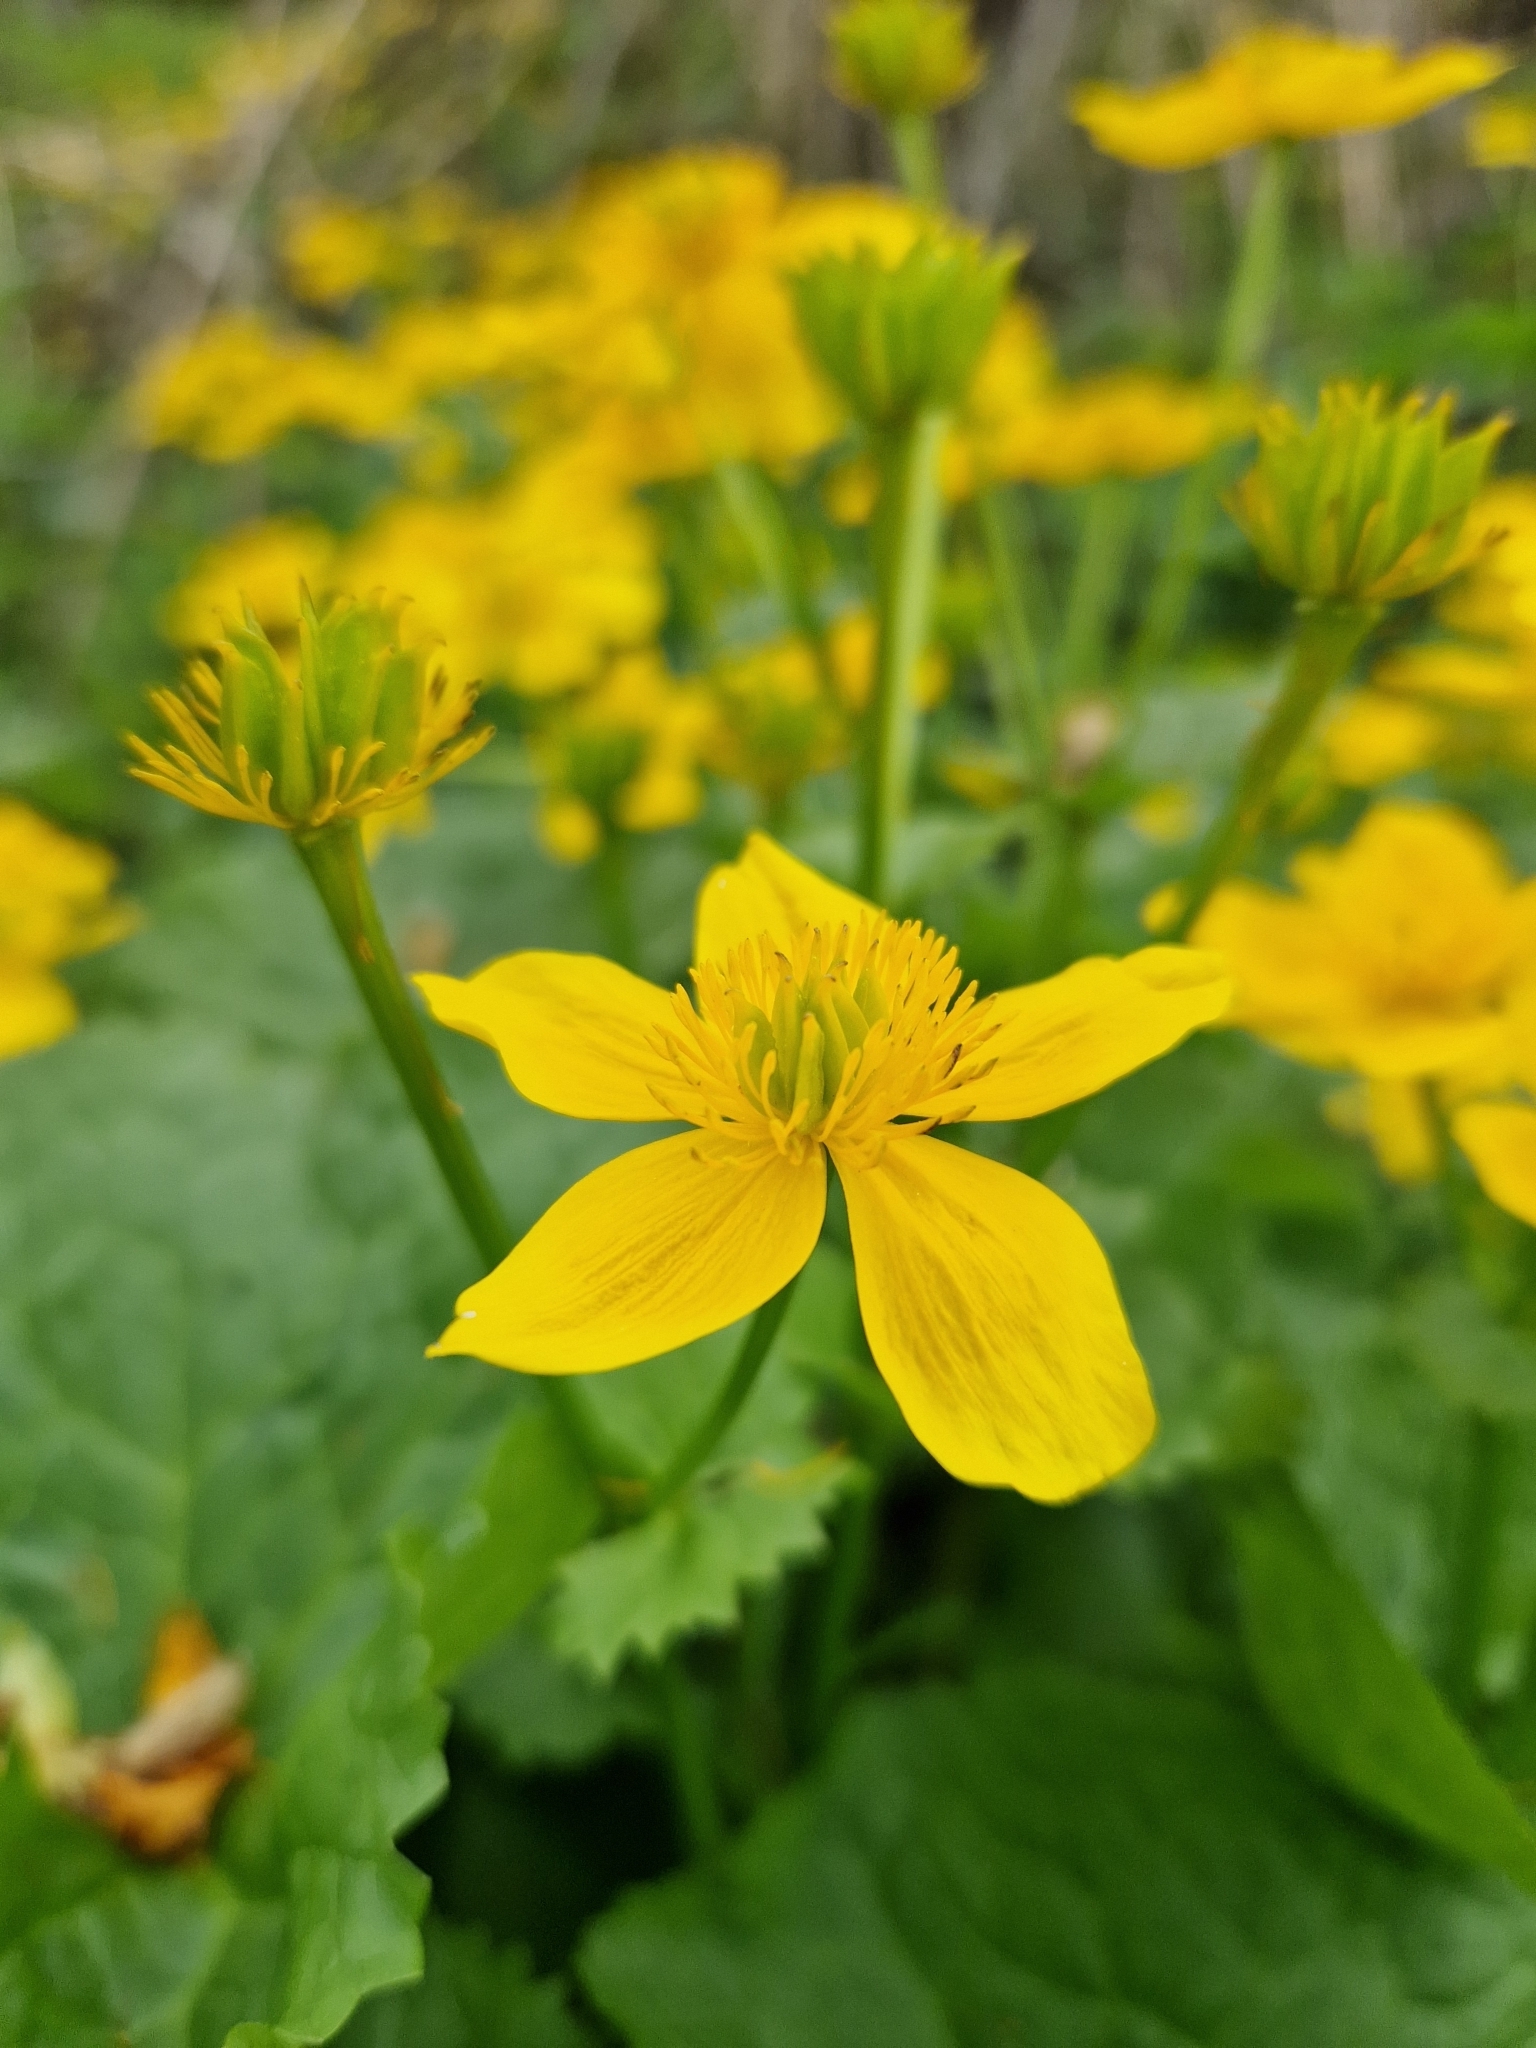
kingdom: Plantae
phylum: Tracheophyta
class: Magnoliopsida
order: Ranunculales
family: Ranunculaceae
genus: Caltha
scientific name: Caltha palustris
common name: Marsh marigold
